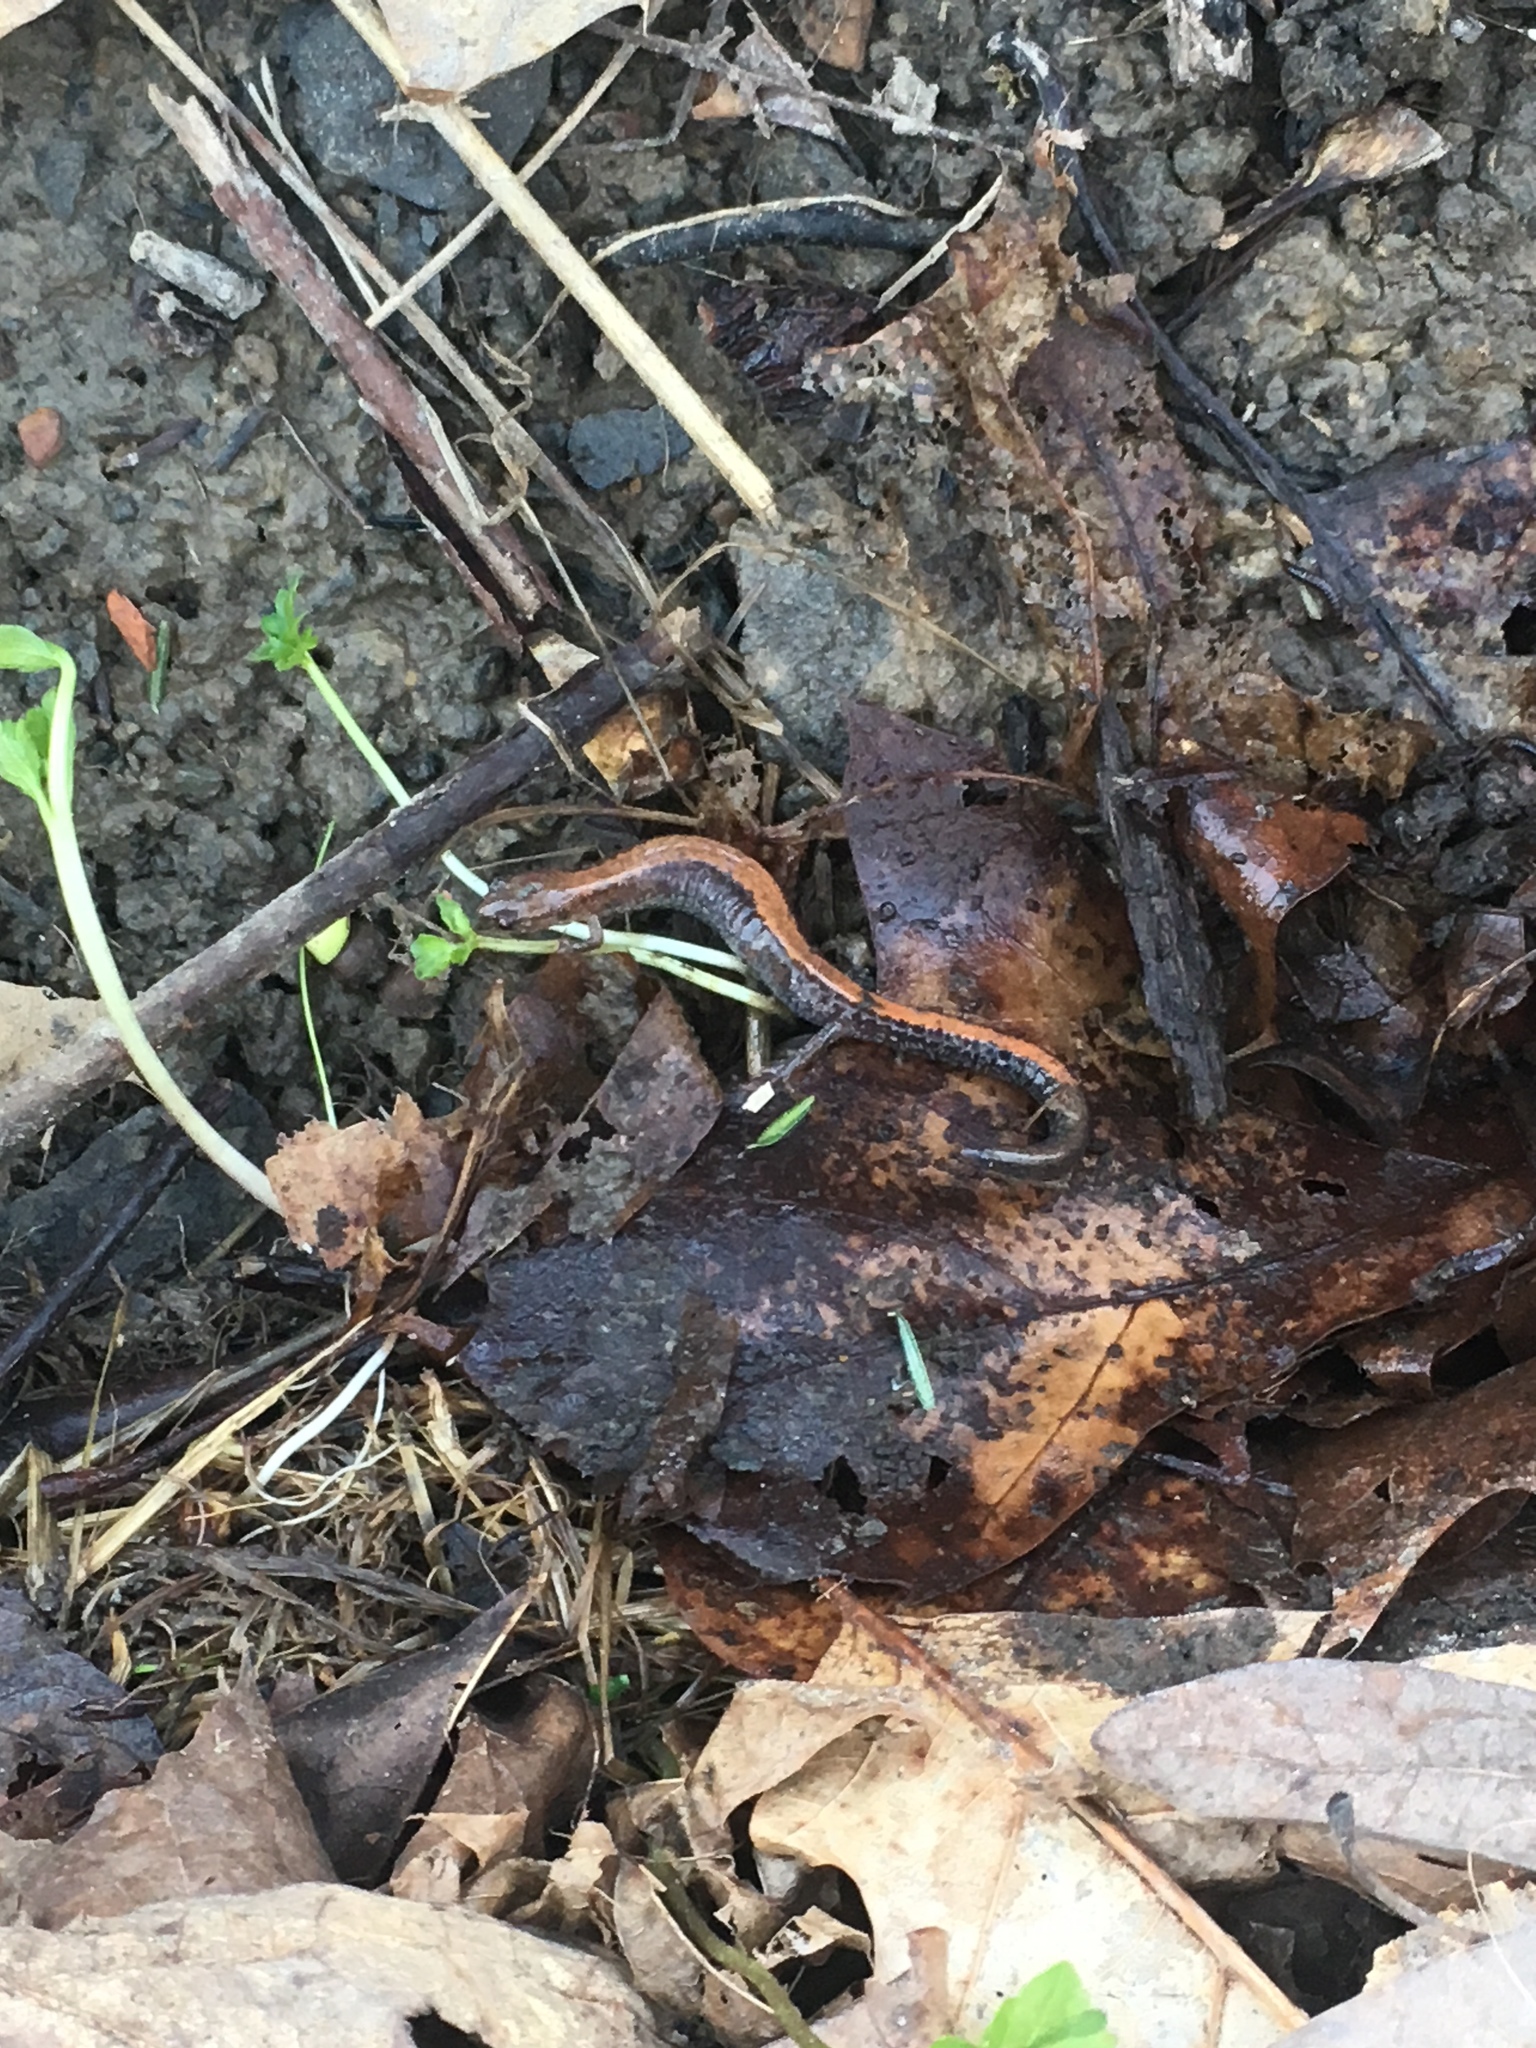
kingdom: Animalia
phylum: Chordata
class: Amphibia
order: Caudata
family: Plethodontidae
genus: Plethodon
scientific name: Plethodon cinereus
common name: Redback salamander
